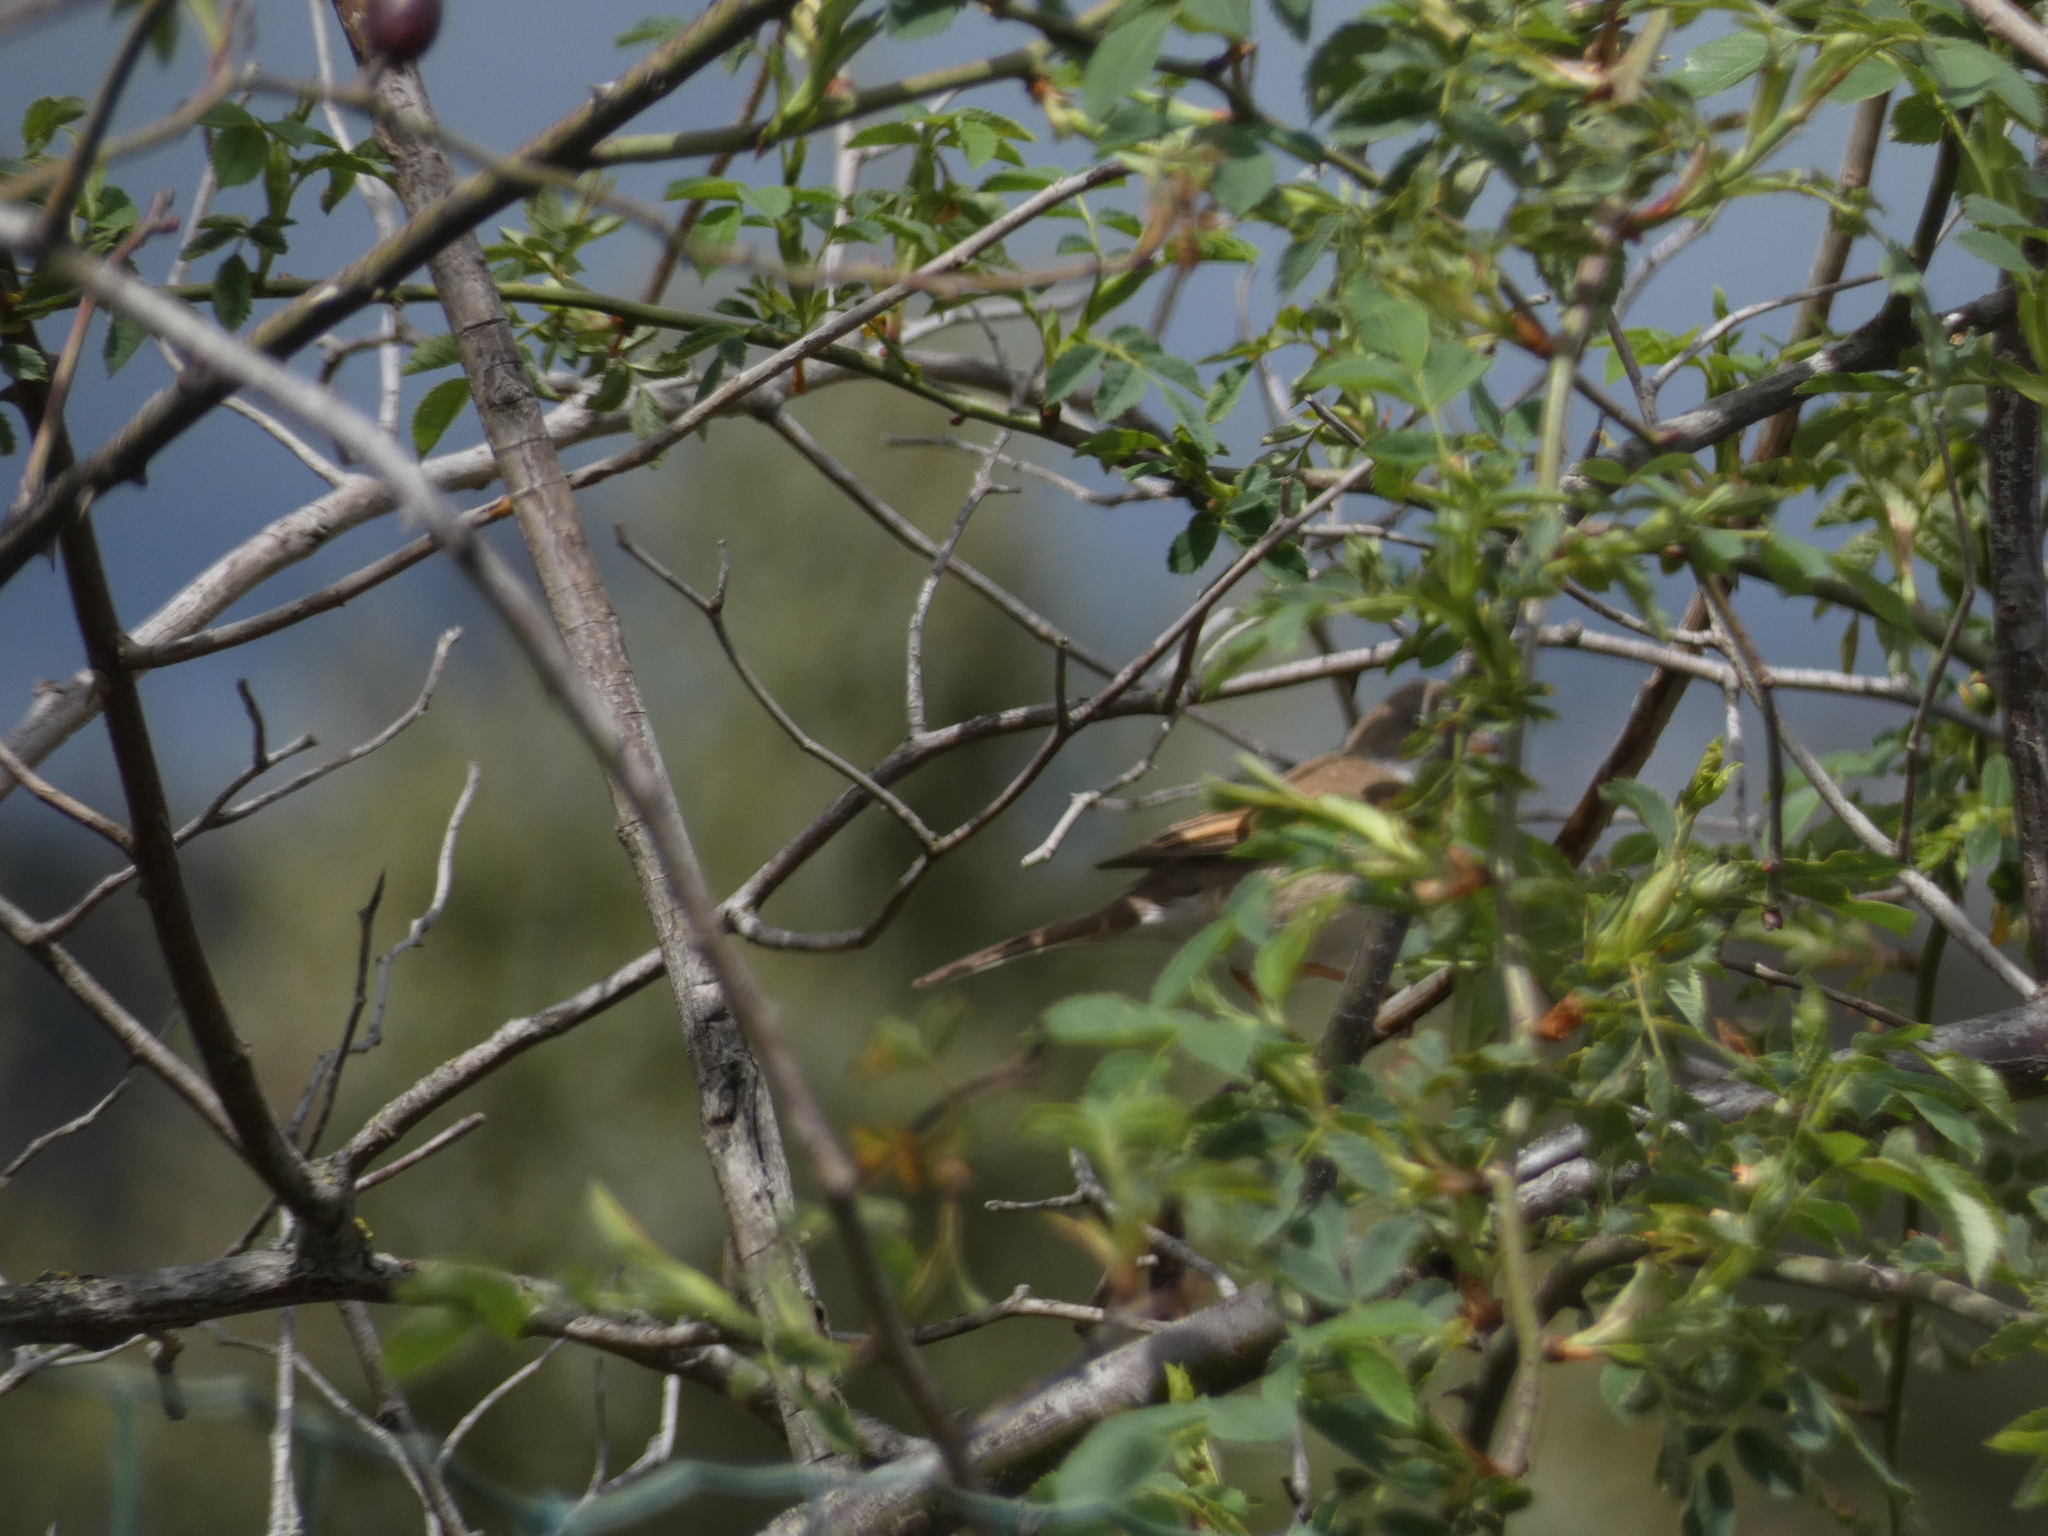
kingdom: Animalia
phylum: Chordata
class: Aves
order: Passeriformes
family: Sylviidae
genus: Sylvia
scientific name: Sylvia communis
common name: Common whitethroat
